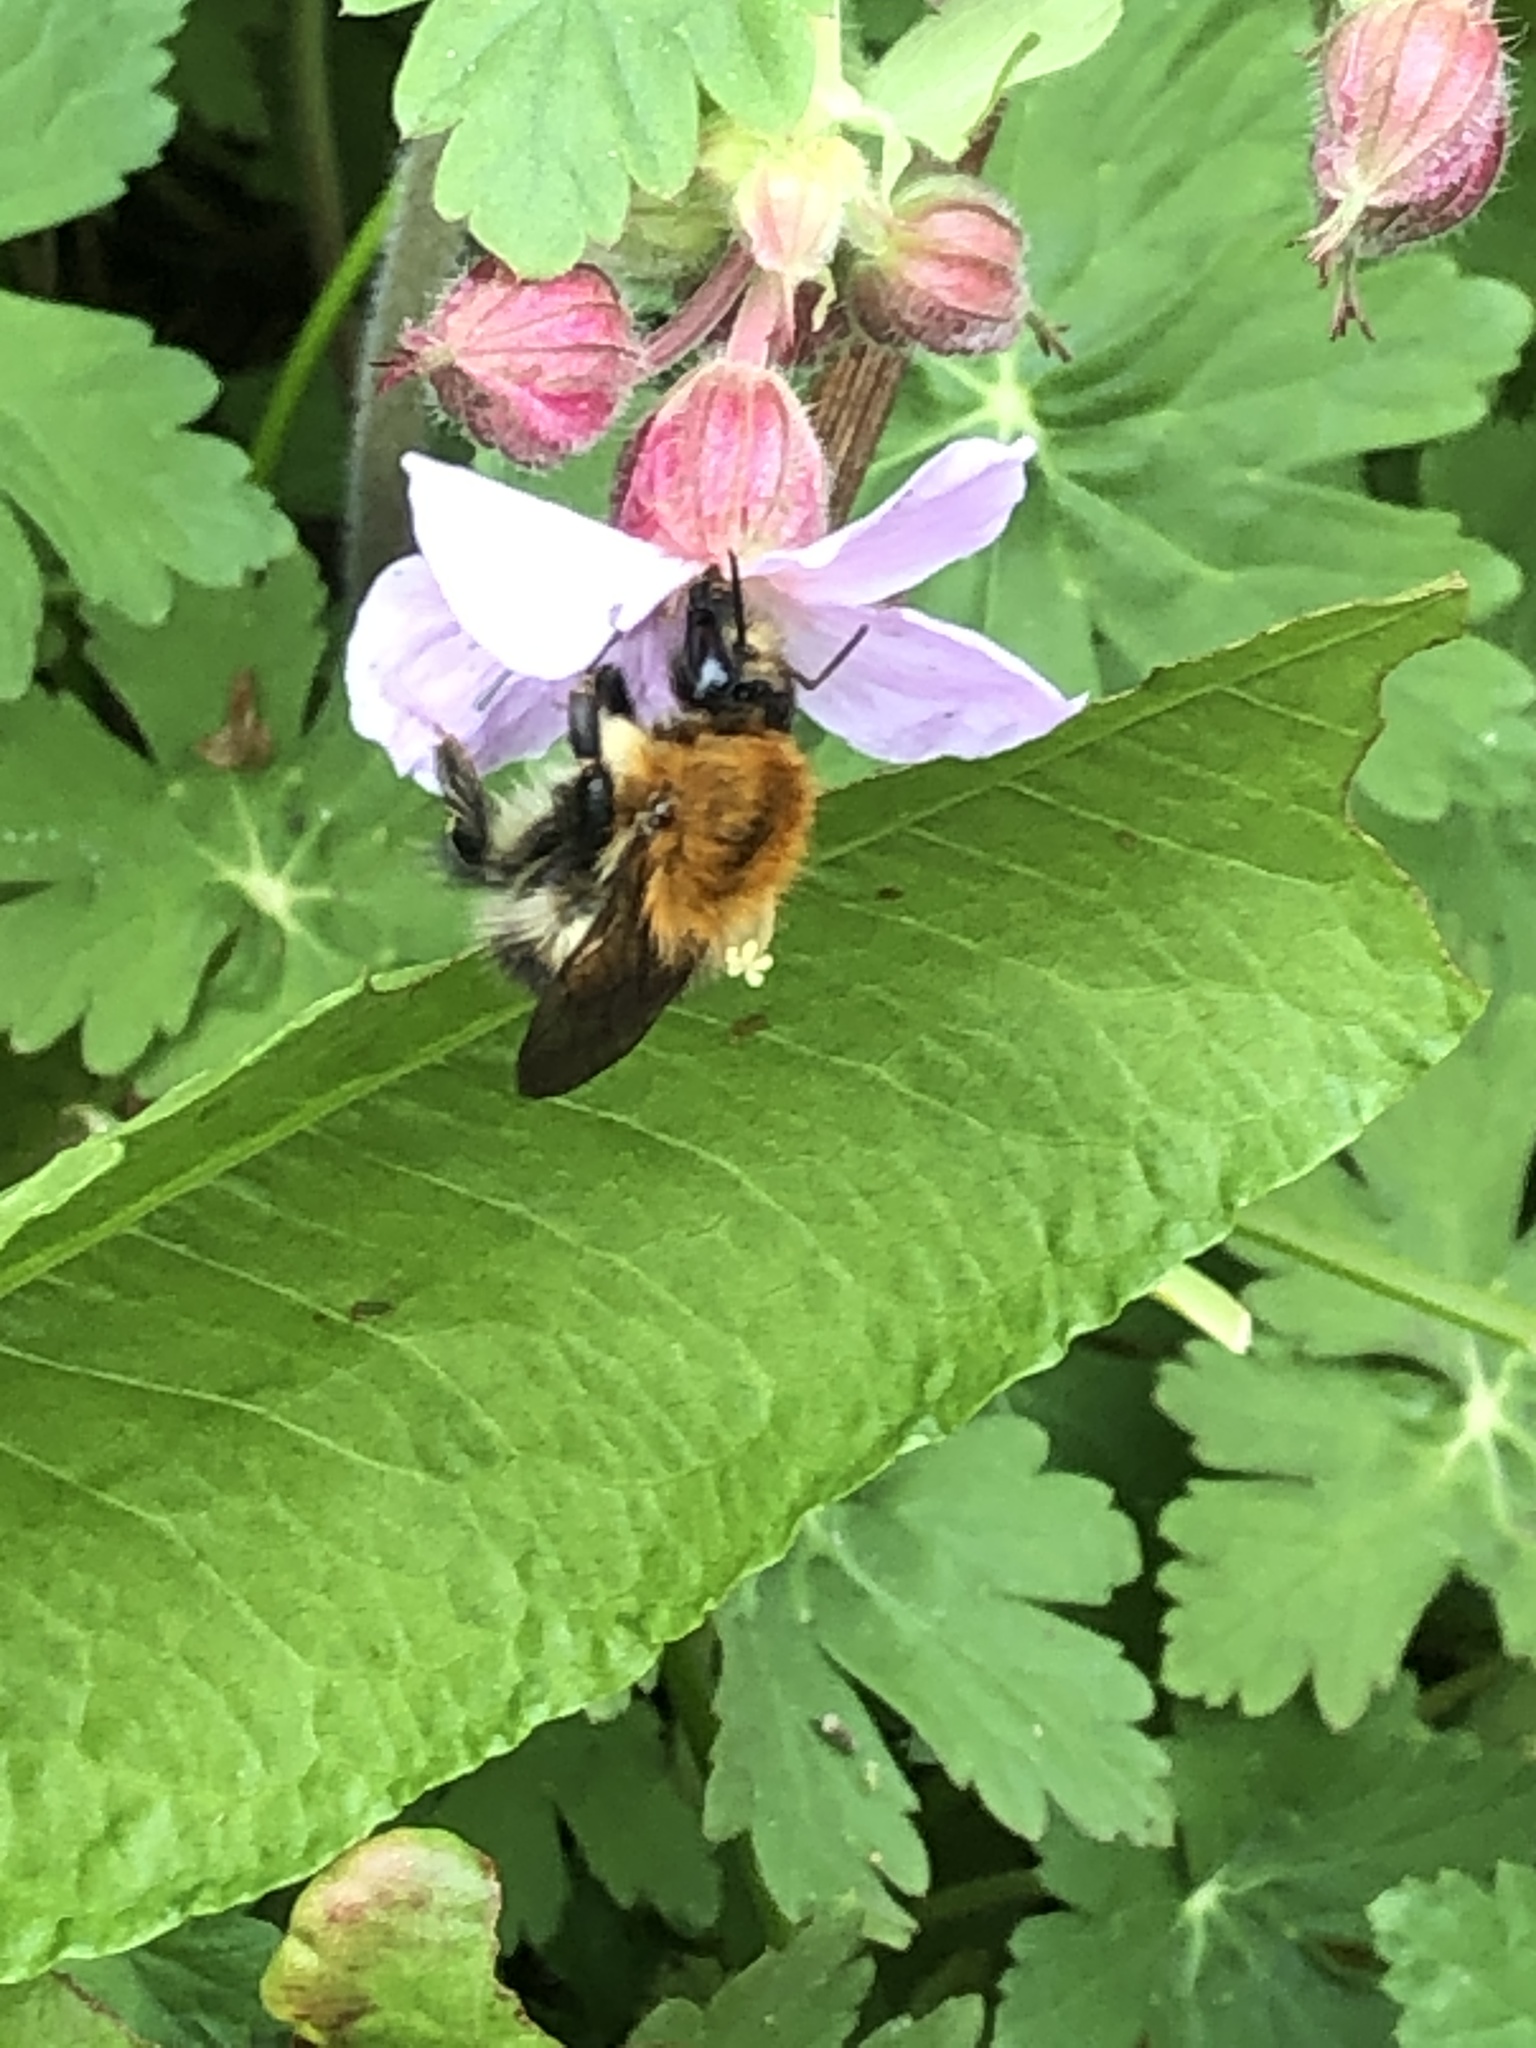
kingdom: Animalia
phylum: Arthropoda
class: Insecta
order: Hymenoptera
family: Apidae
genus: Bombus
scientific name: Bombus pascuorum
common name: Common carder bee
